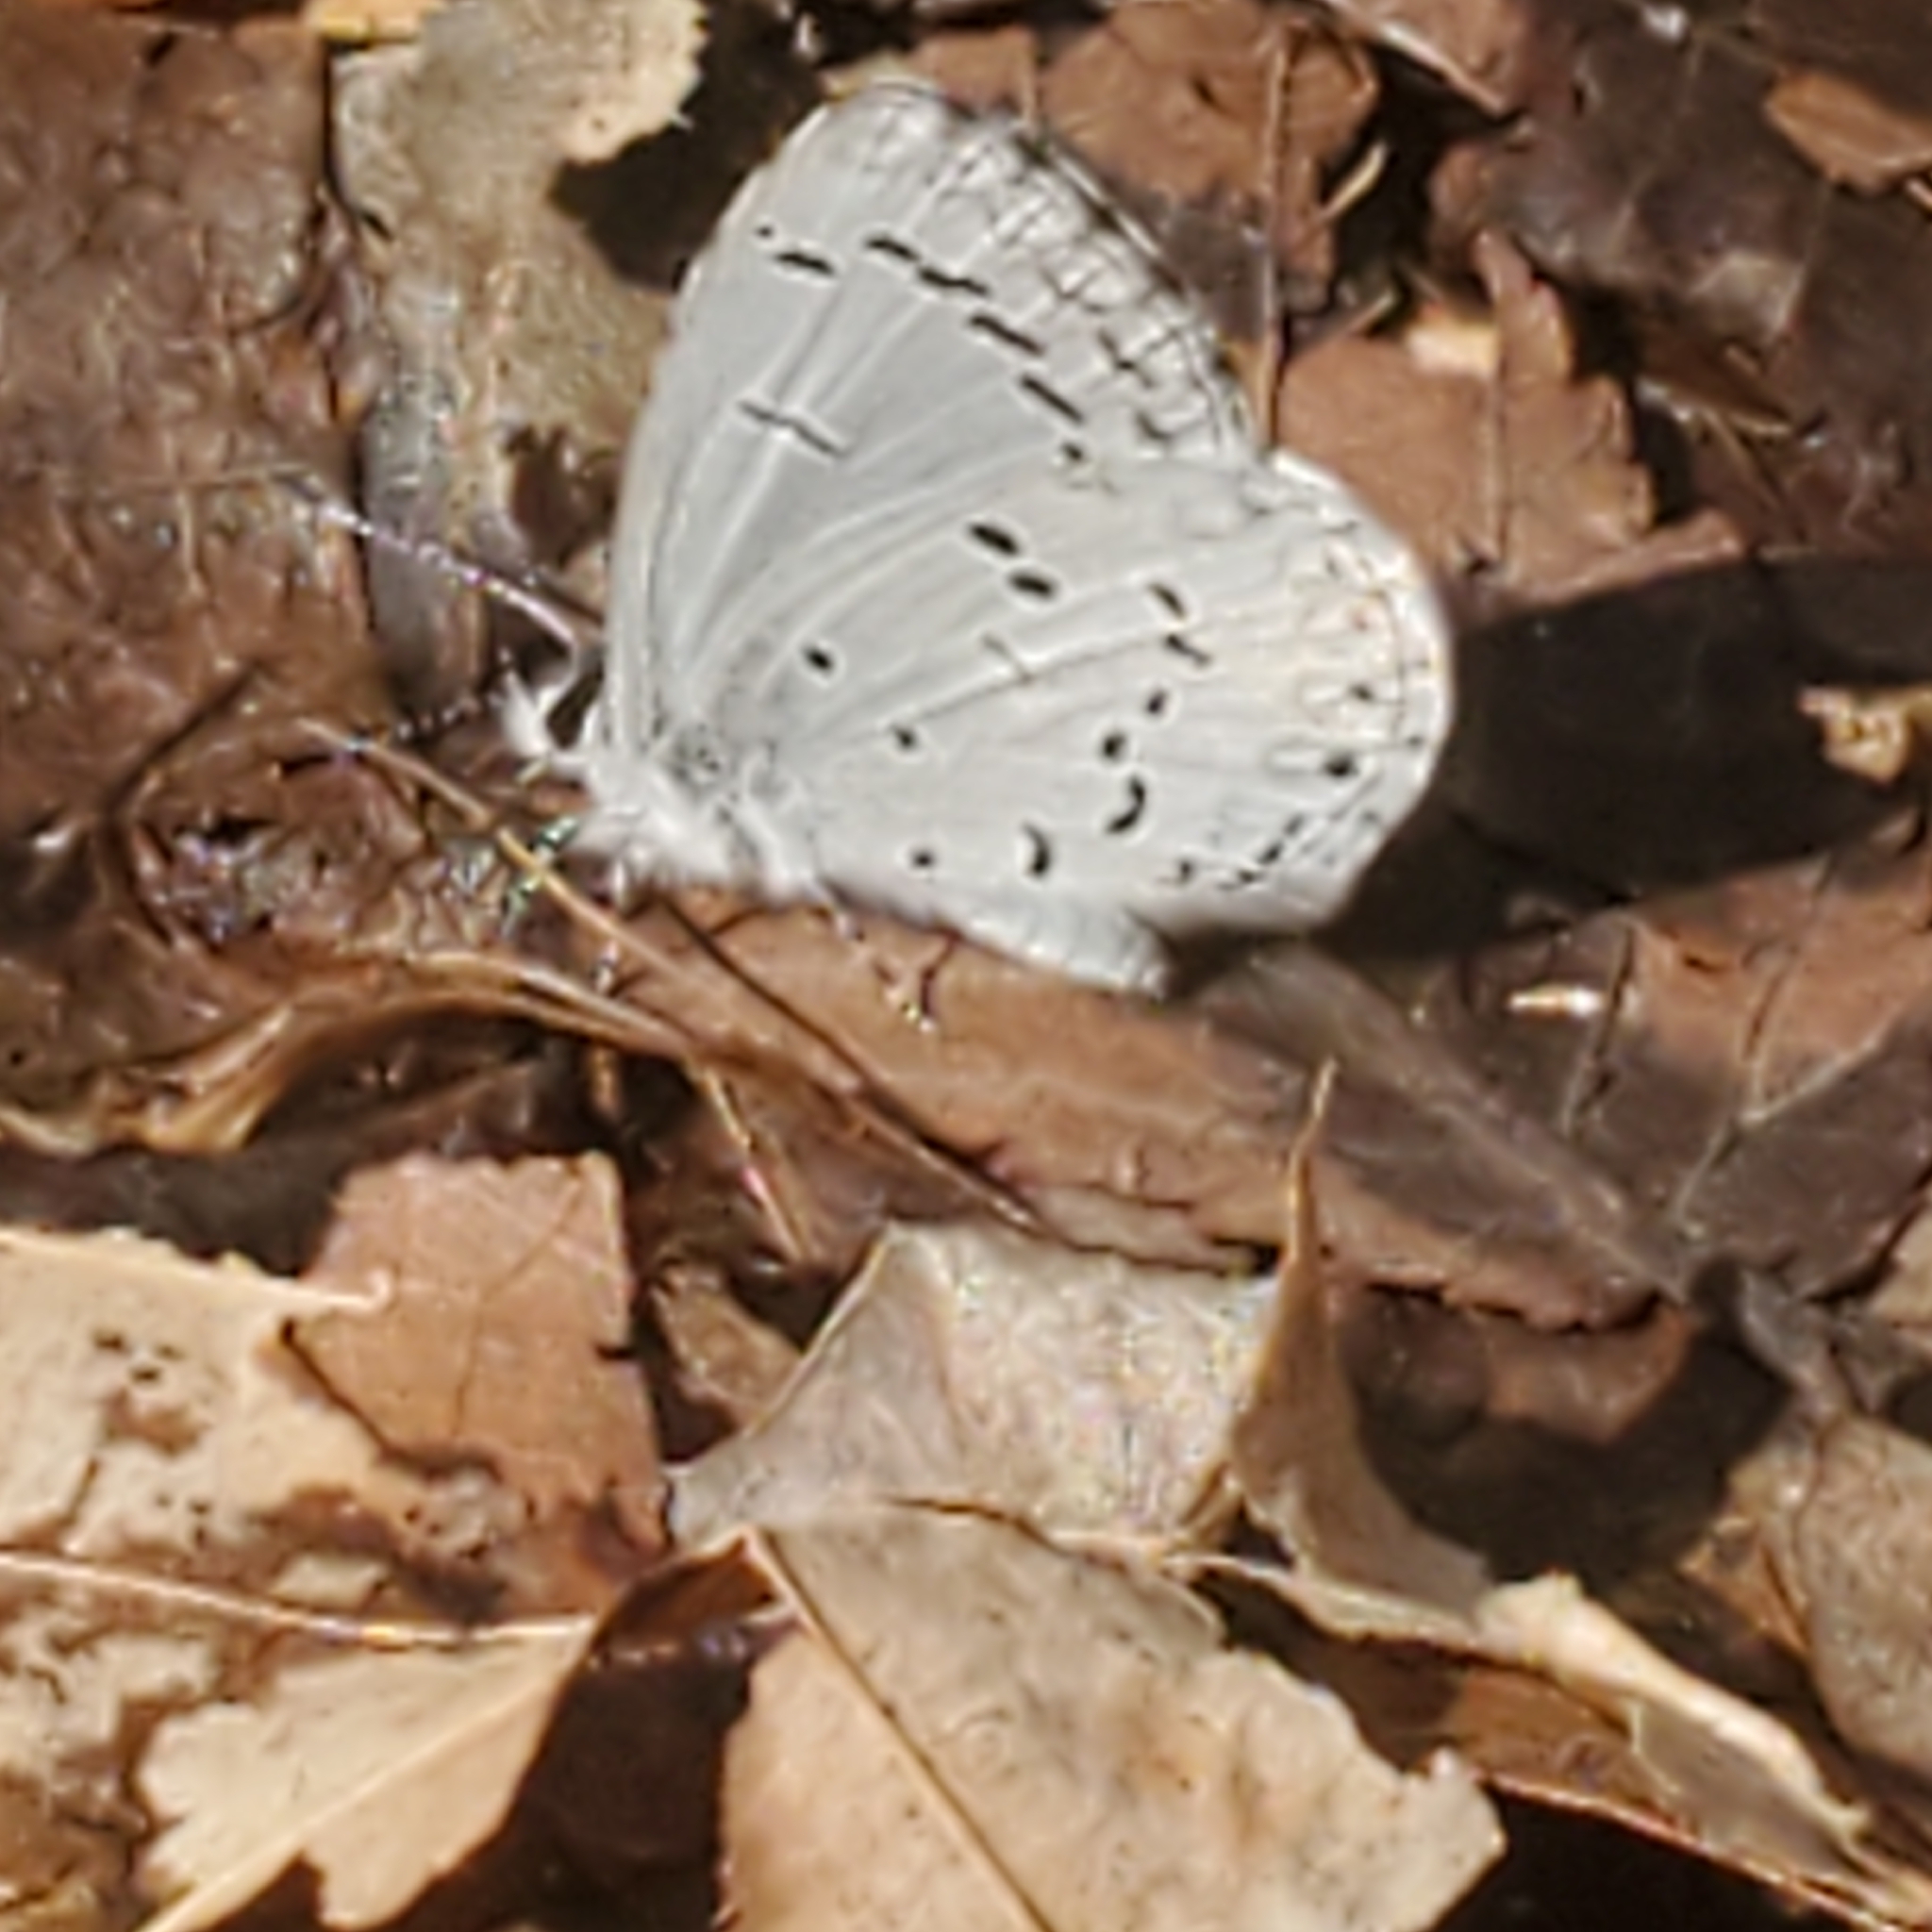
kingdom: Animalia
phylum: Arthropoda
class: Insecta
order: Lepidoptera
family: Lycaenidae
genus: Celastrina
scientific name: Celastrina ladon
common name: Spring azure
